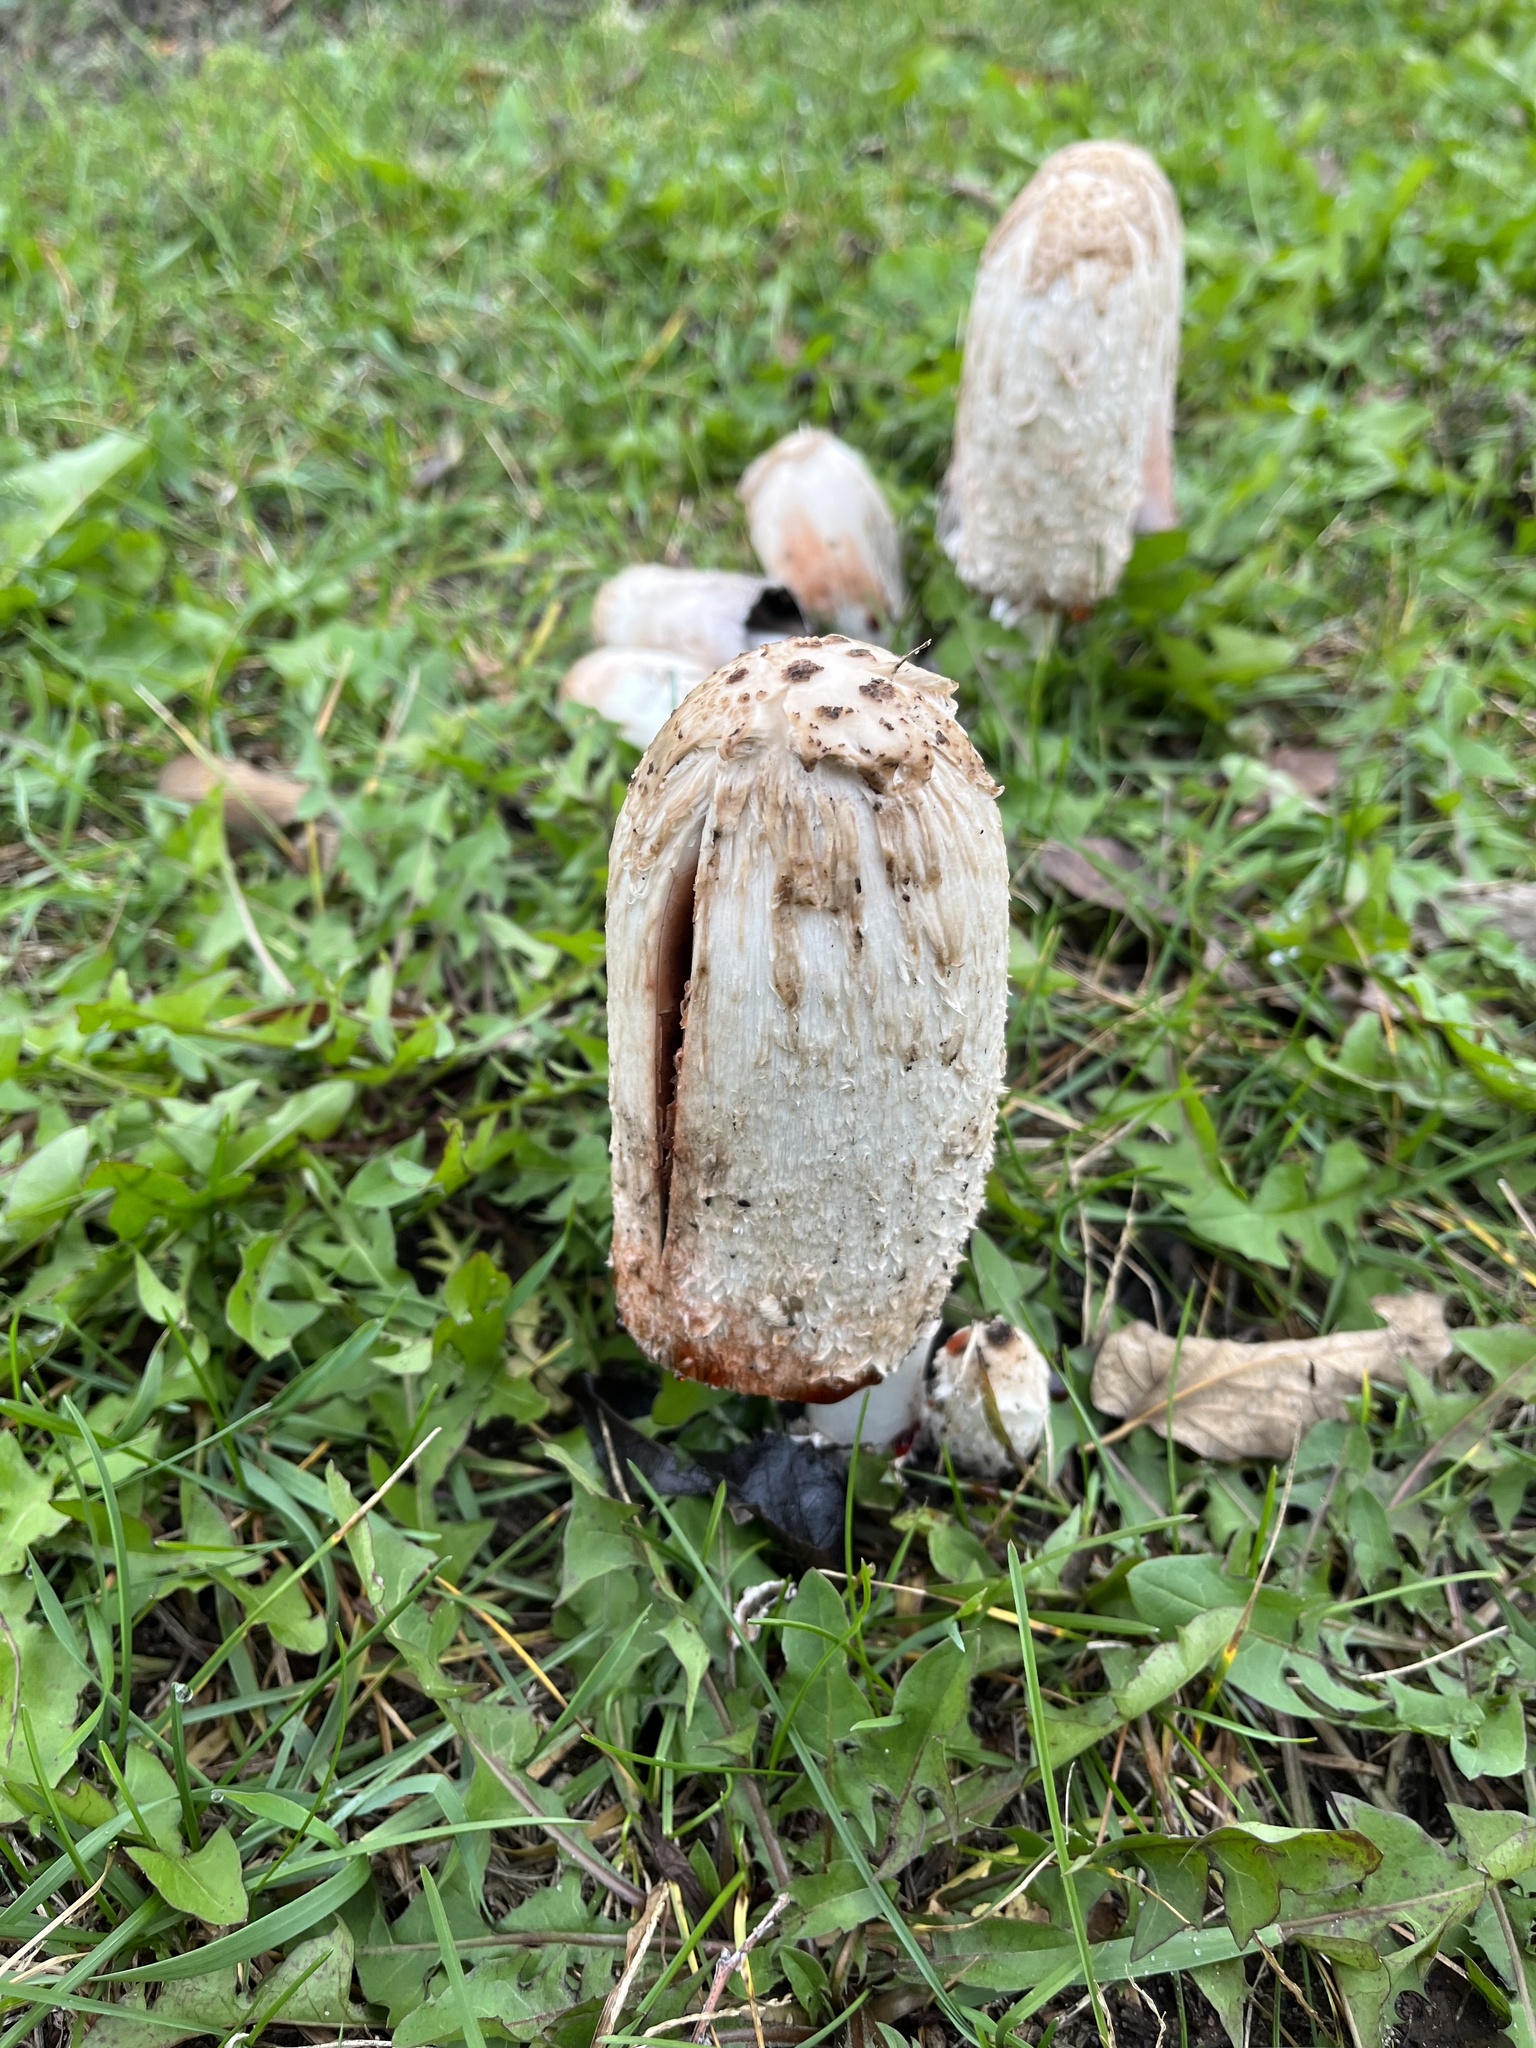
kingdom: Fungi
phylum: Basidiomycota
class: Agaricomycetes
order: Agaricales
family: Agaricaceae
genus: Coprinus
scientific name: Coprinus comatus
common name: Lawyer's wig
